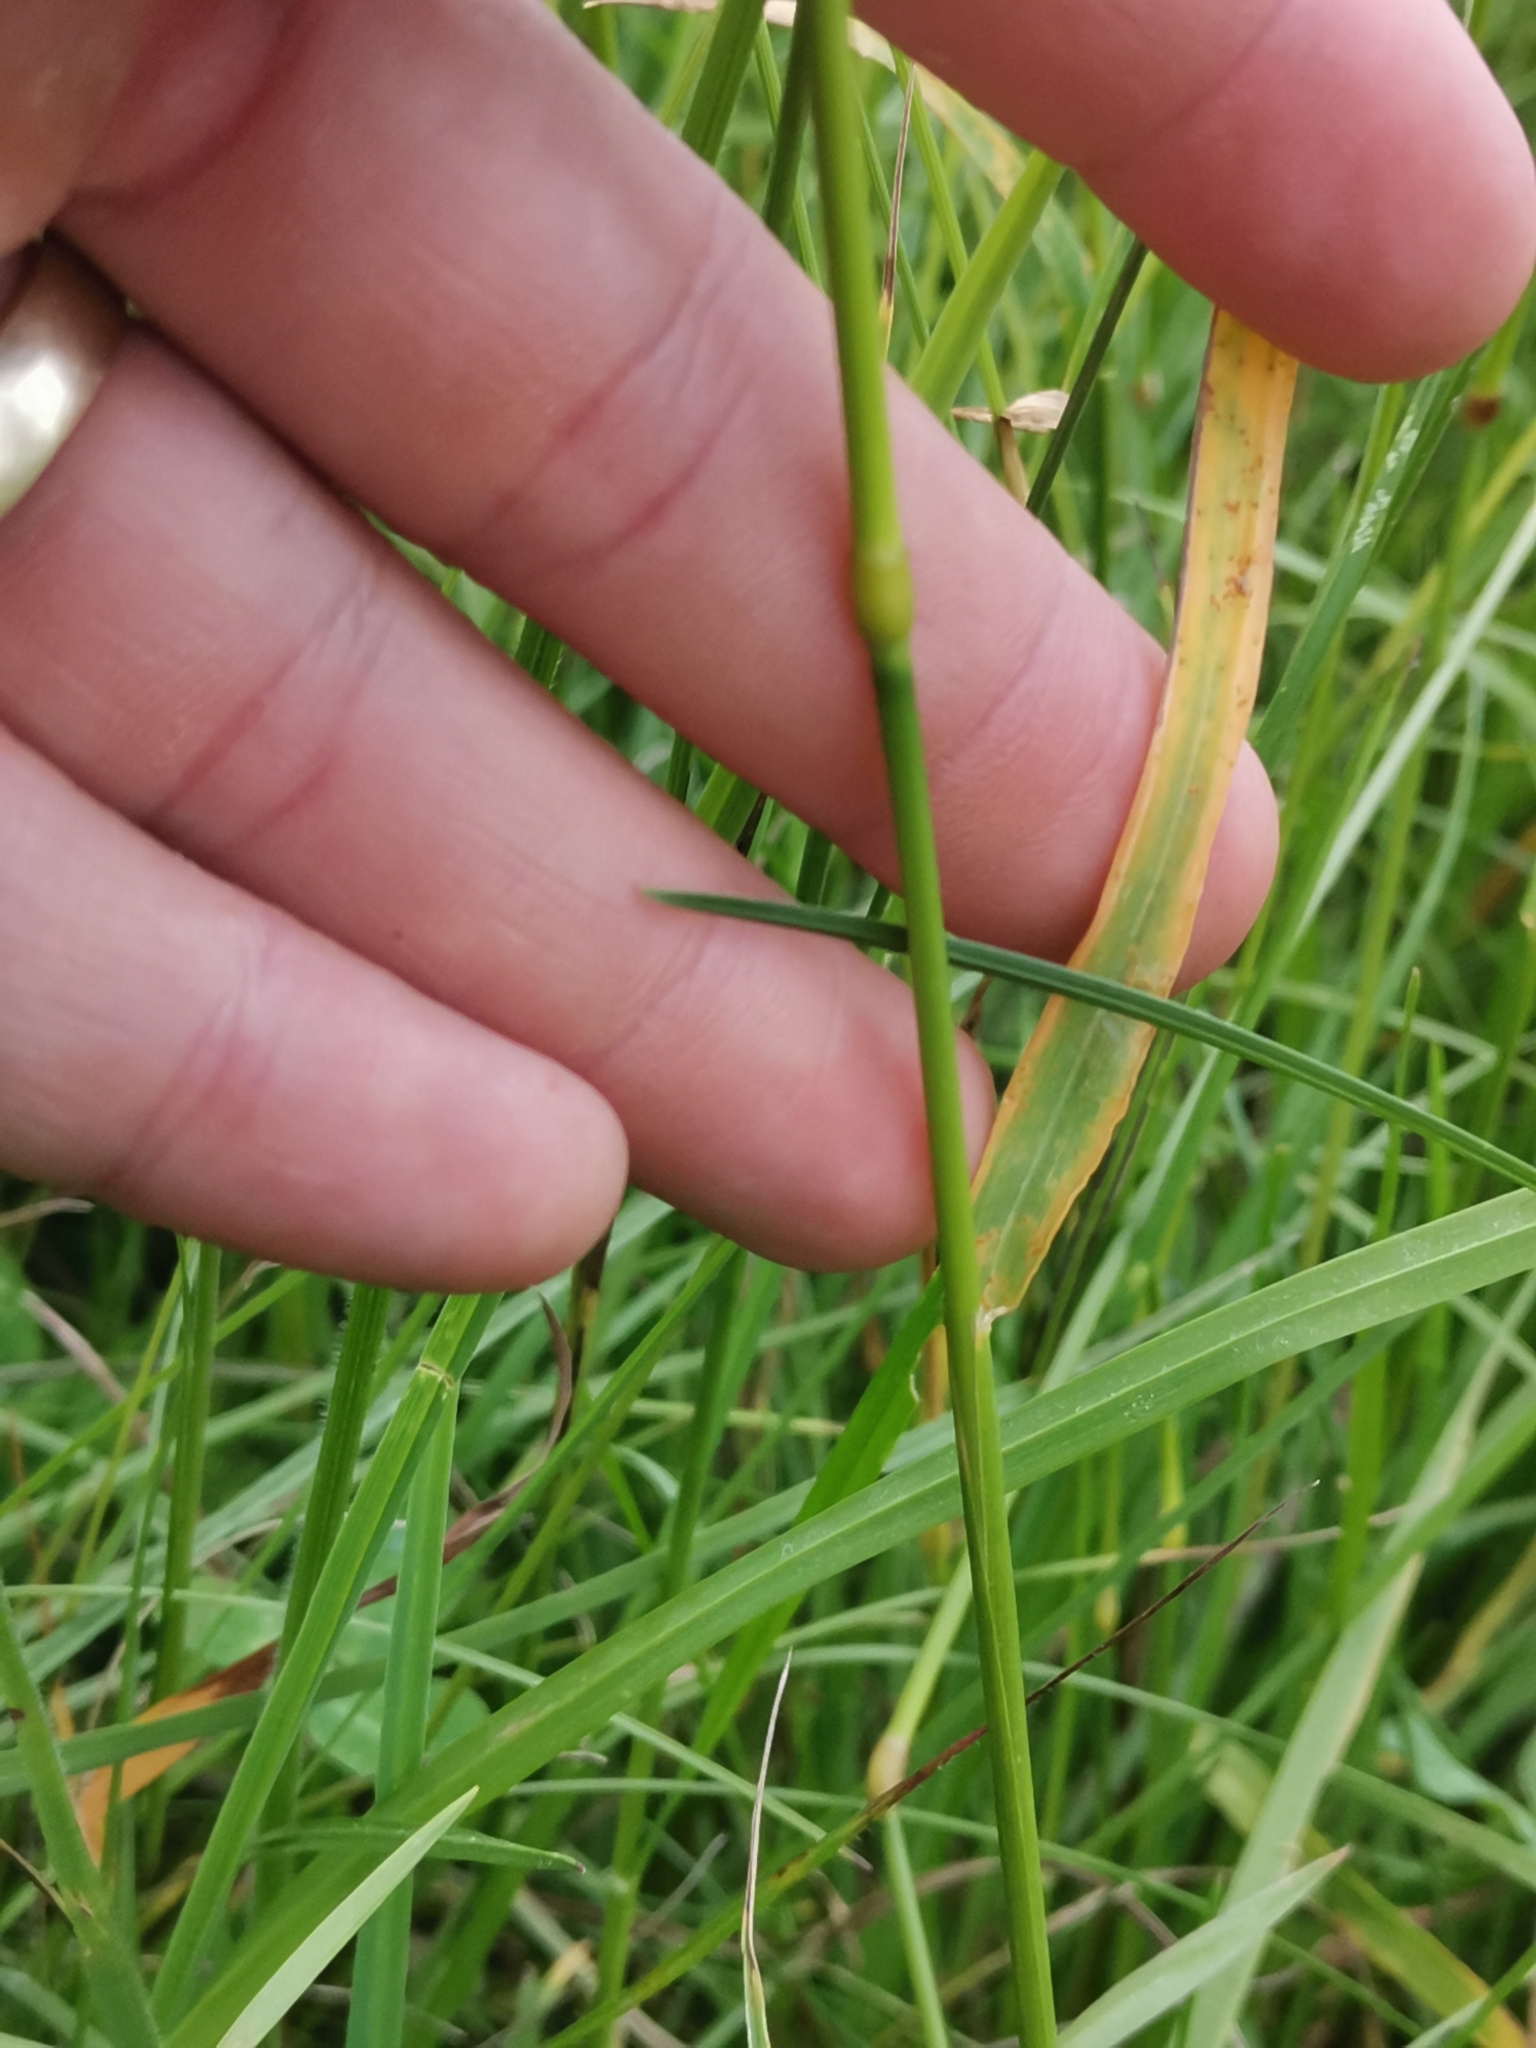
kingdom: Plantae
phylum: Tracheophyta
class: Liliopsida
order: Poales
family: Poaceae
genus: Trisetum
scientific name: Trisetum flavescens
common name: Yellow oat-grass
